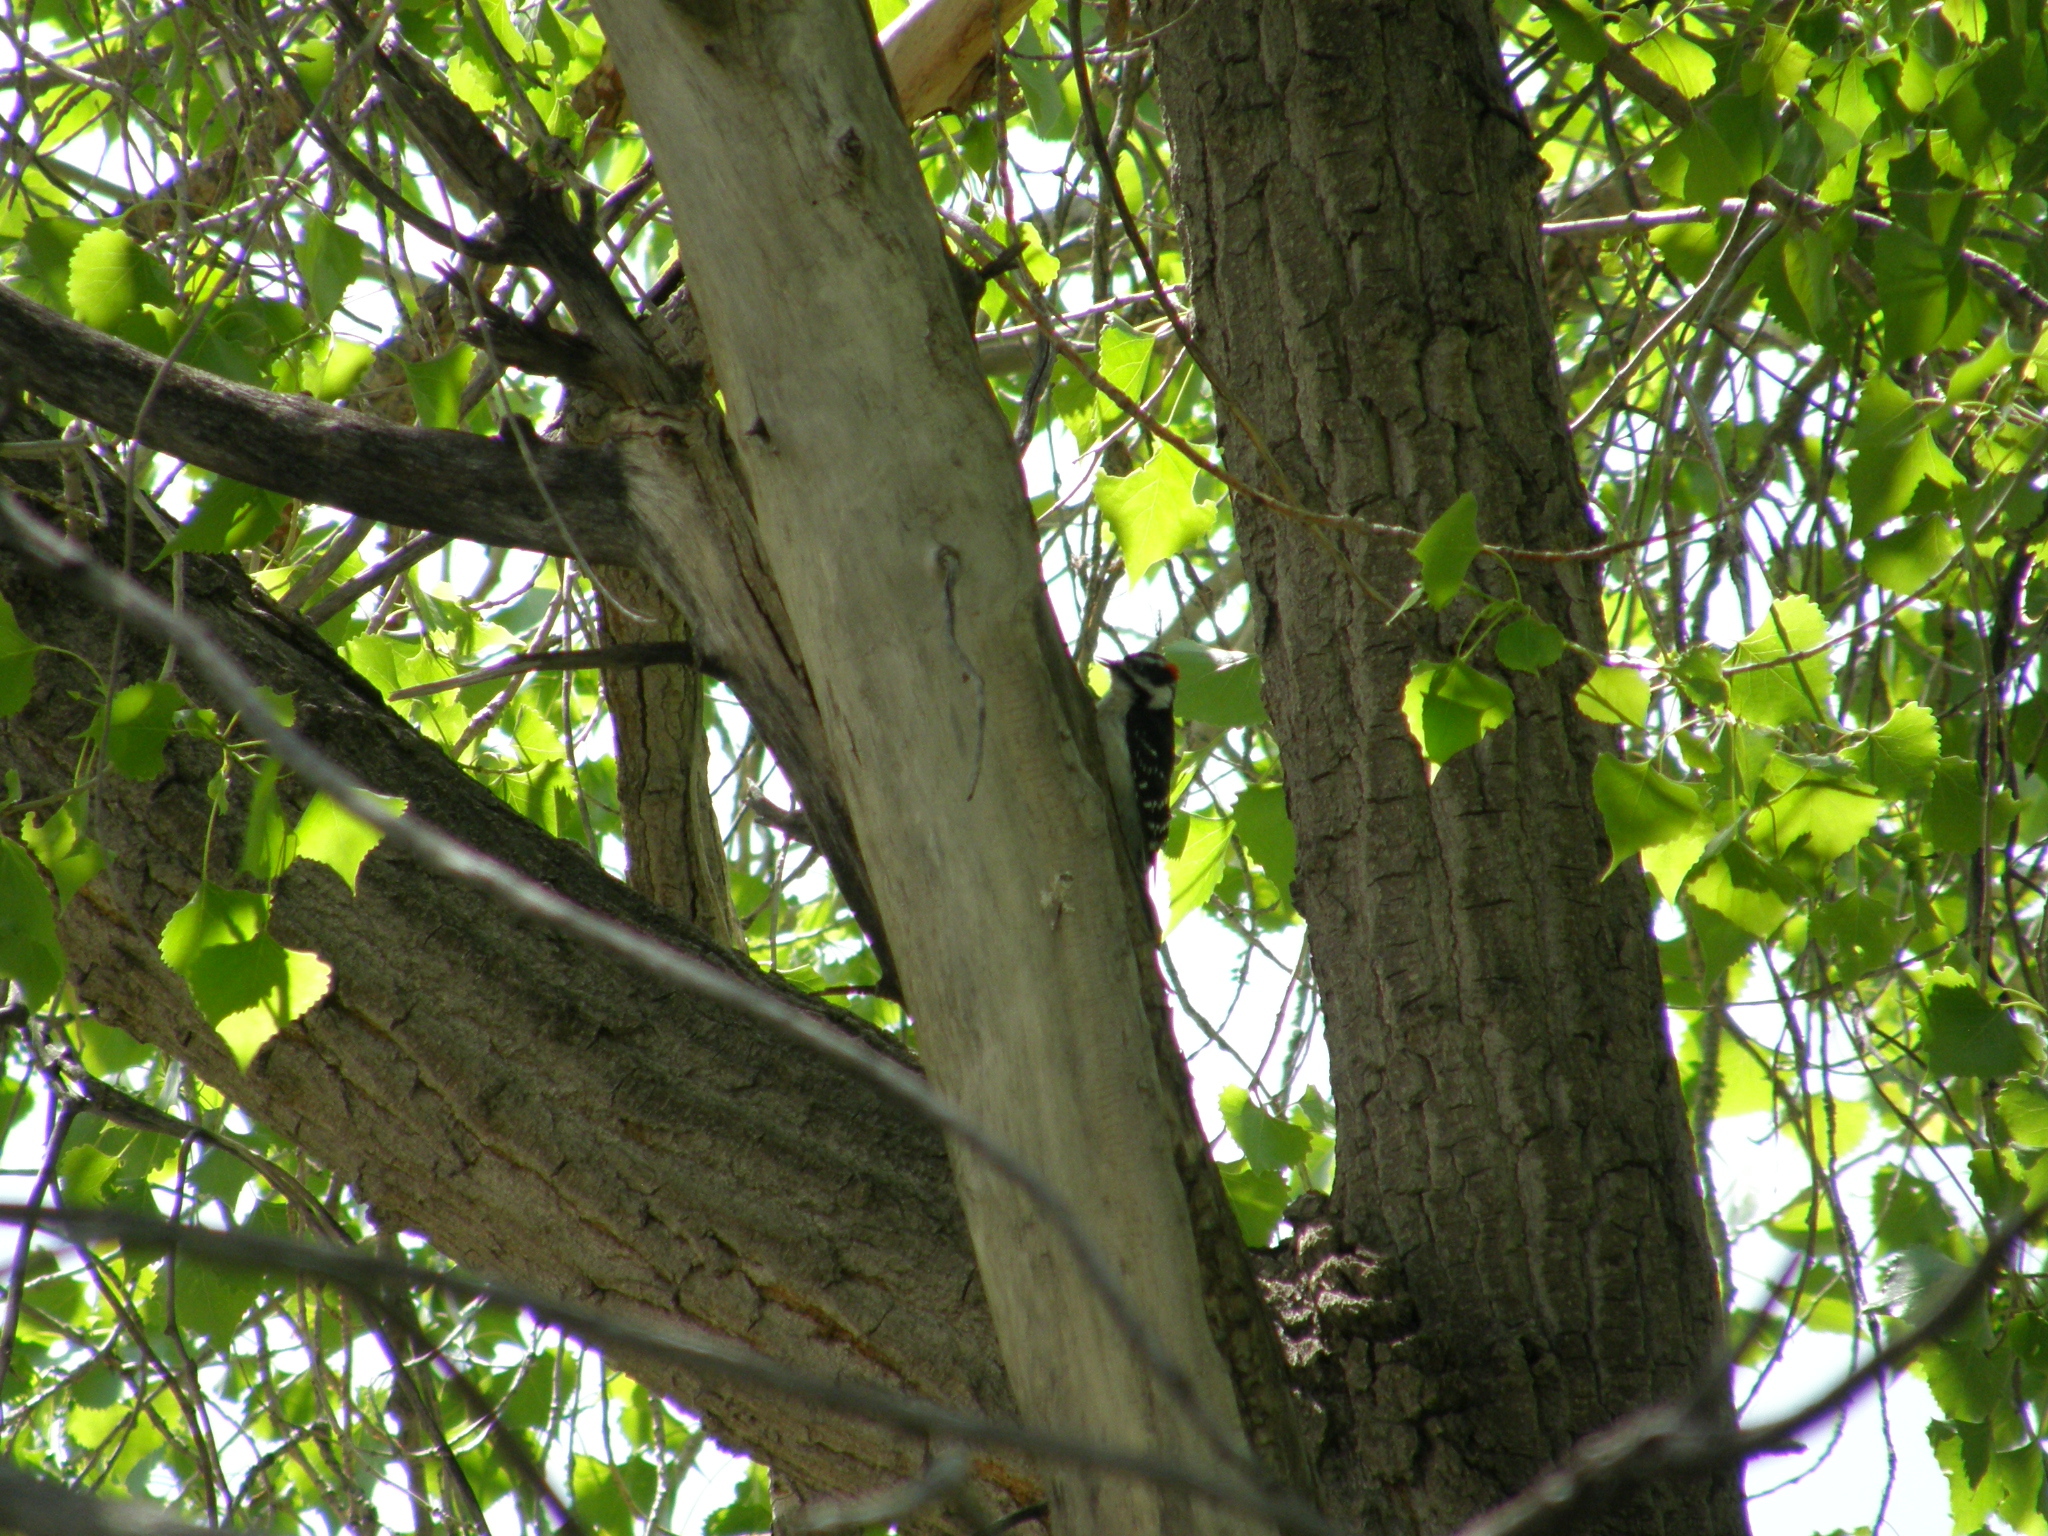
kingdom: Animalia
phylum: Chordata
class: Aves
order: Piciformes
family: Picidae
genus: Dryobates
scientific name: Dryobates pubescens
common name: Downy woodpecker
